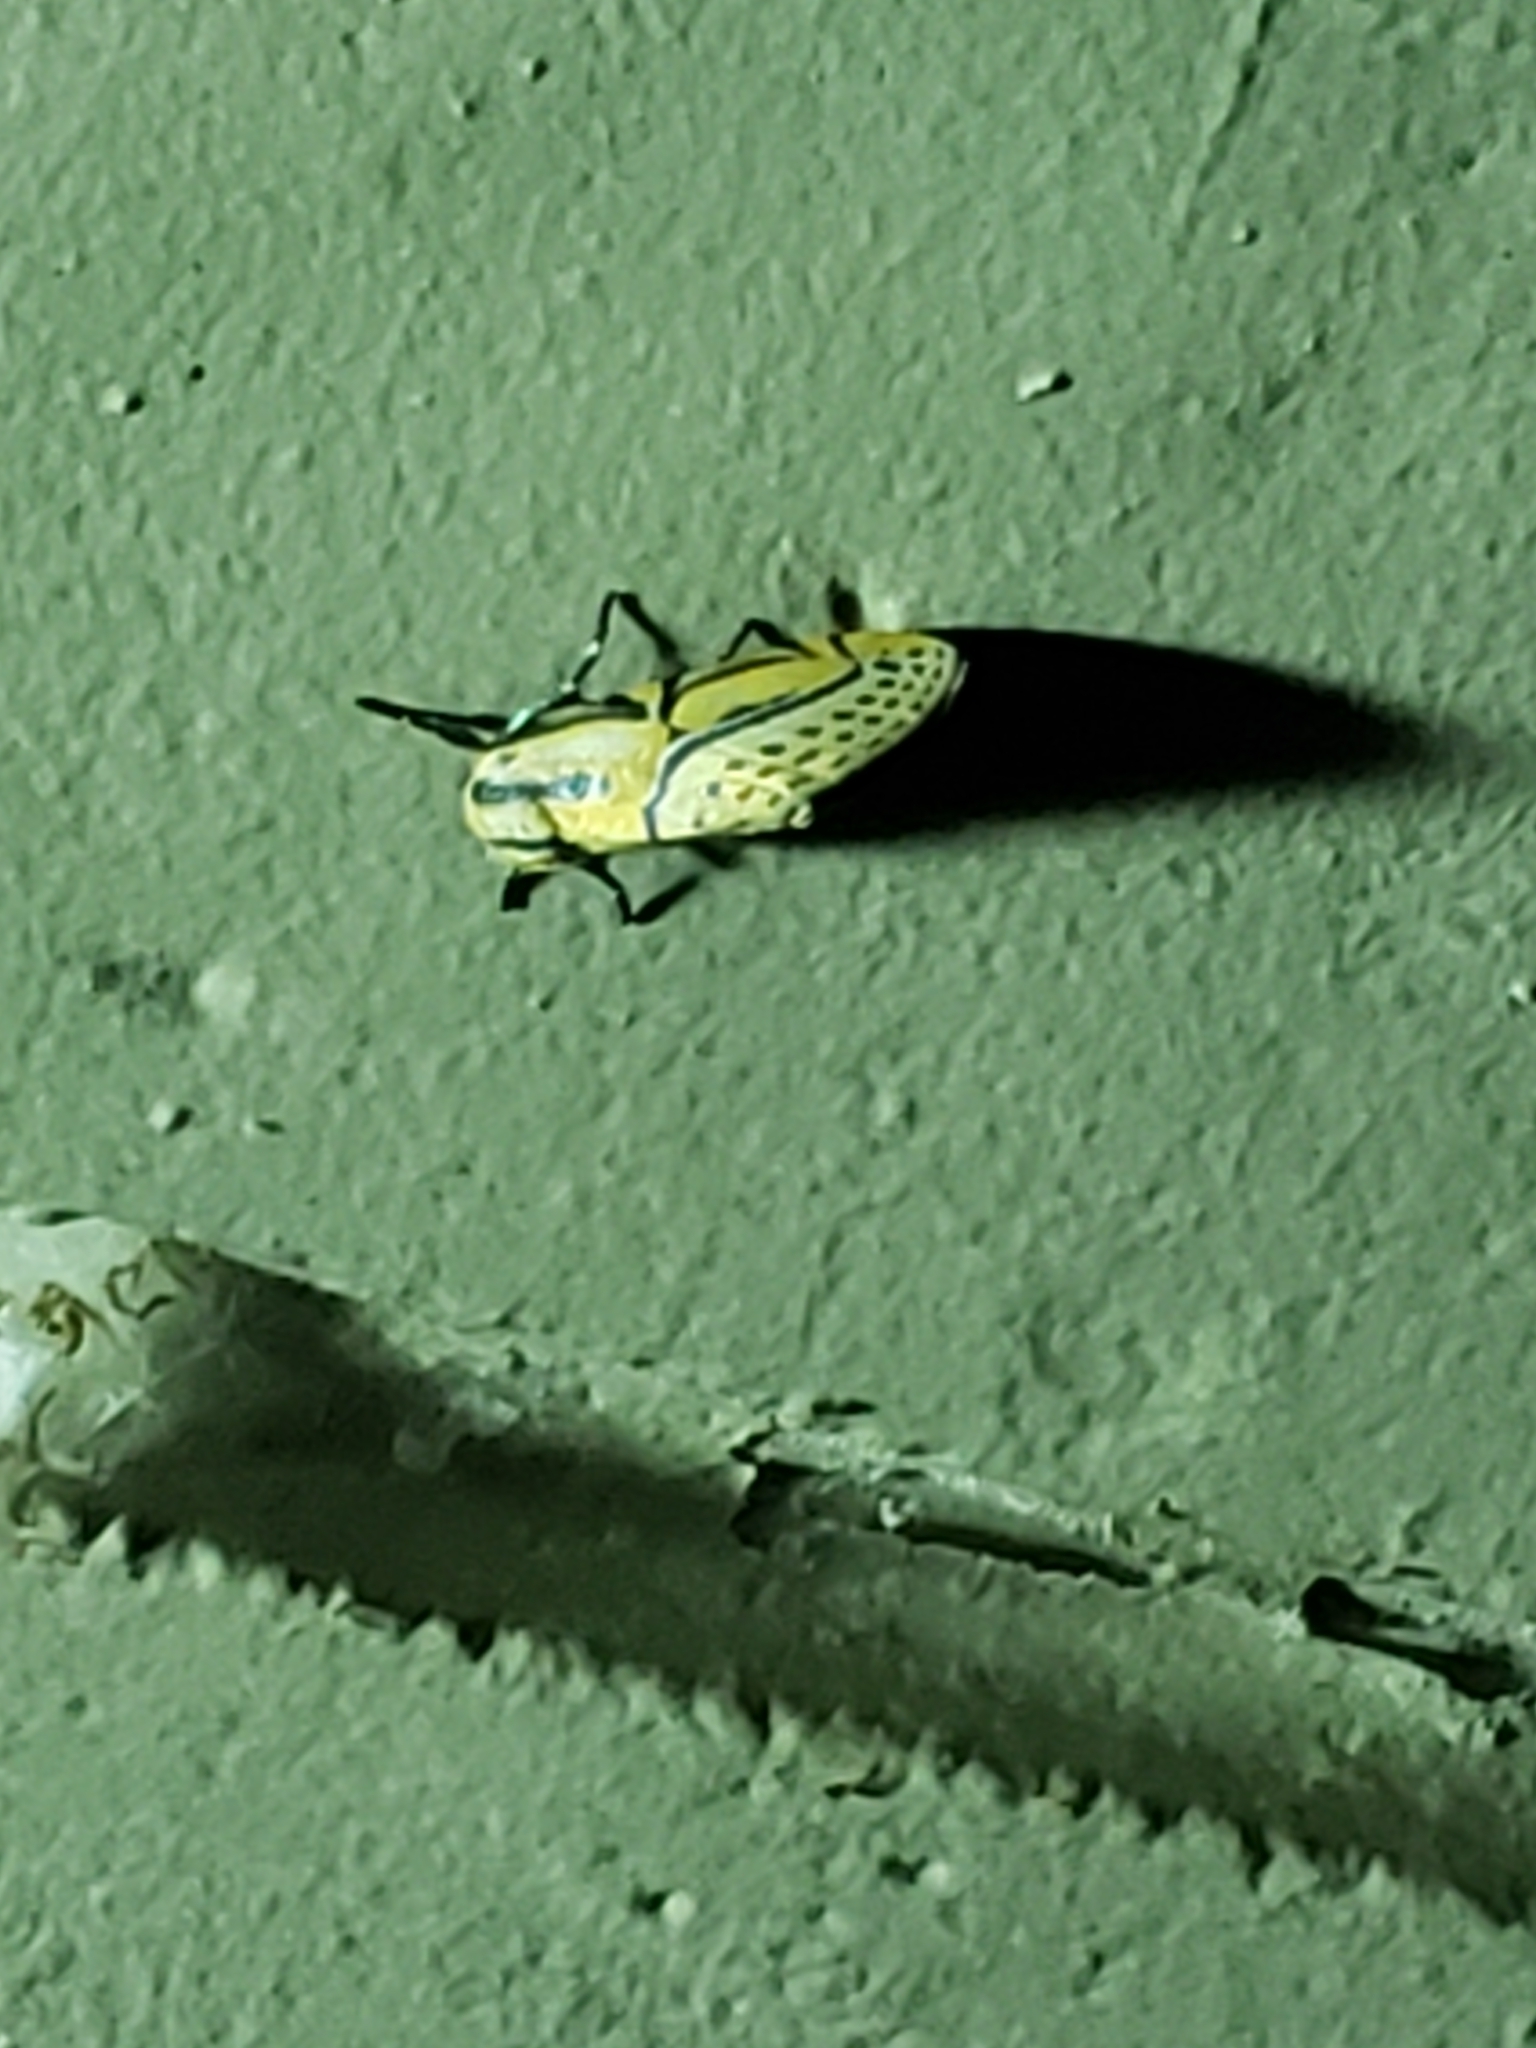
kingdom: Animalia
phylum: Arthropoda
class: Insecta
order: Lepidoptera
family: Erebidae
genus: Diphthera
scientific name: Diphthera festiva
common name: Hieroglyphic moth
